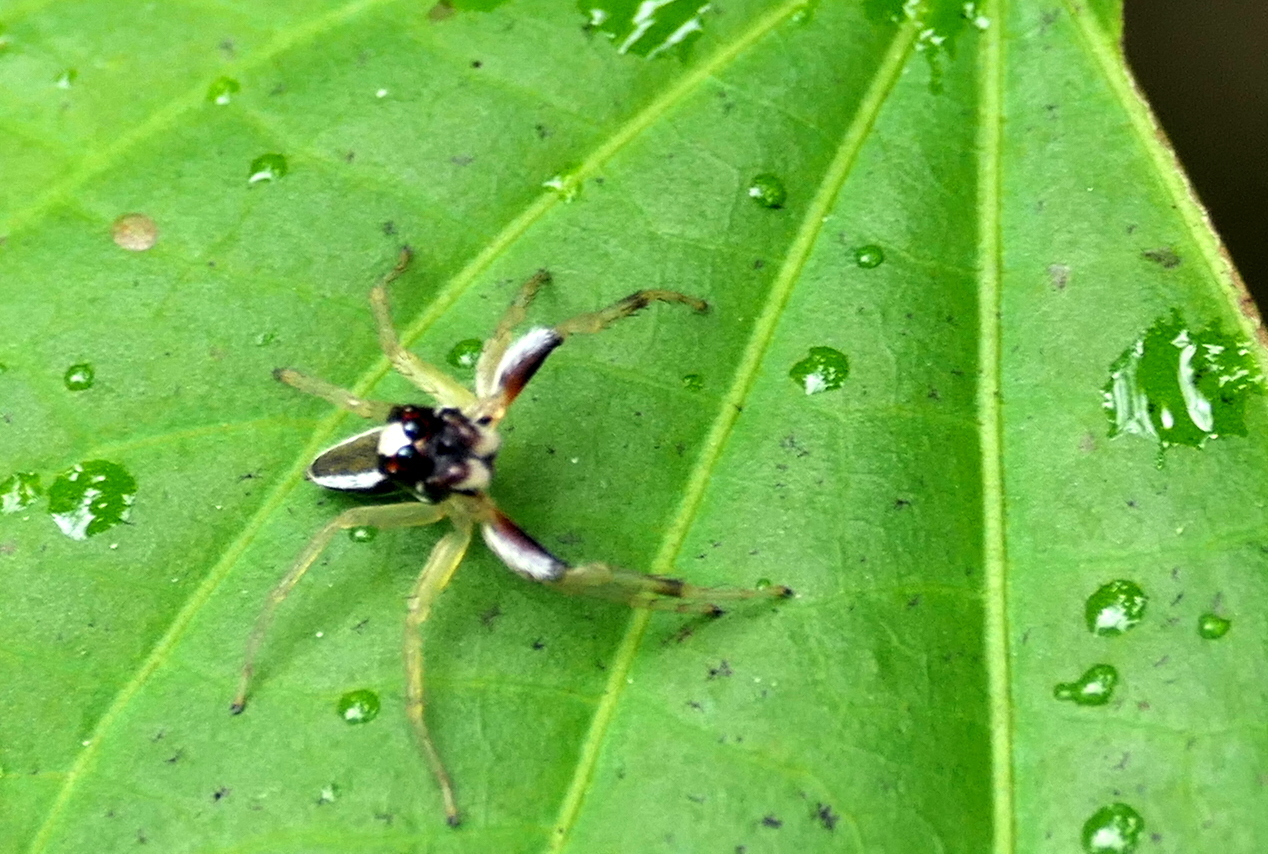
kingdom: Animalia
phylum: Arthropoda
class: Arachnida
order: Araneae
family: Salticidae
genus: Chira
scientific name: Chira spinosa
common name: Jumping spiders
